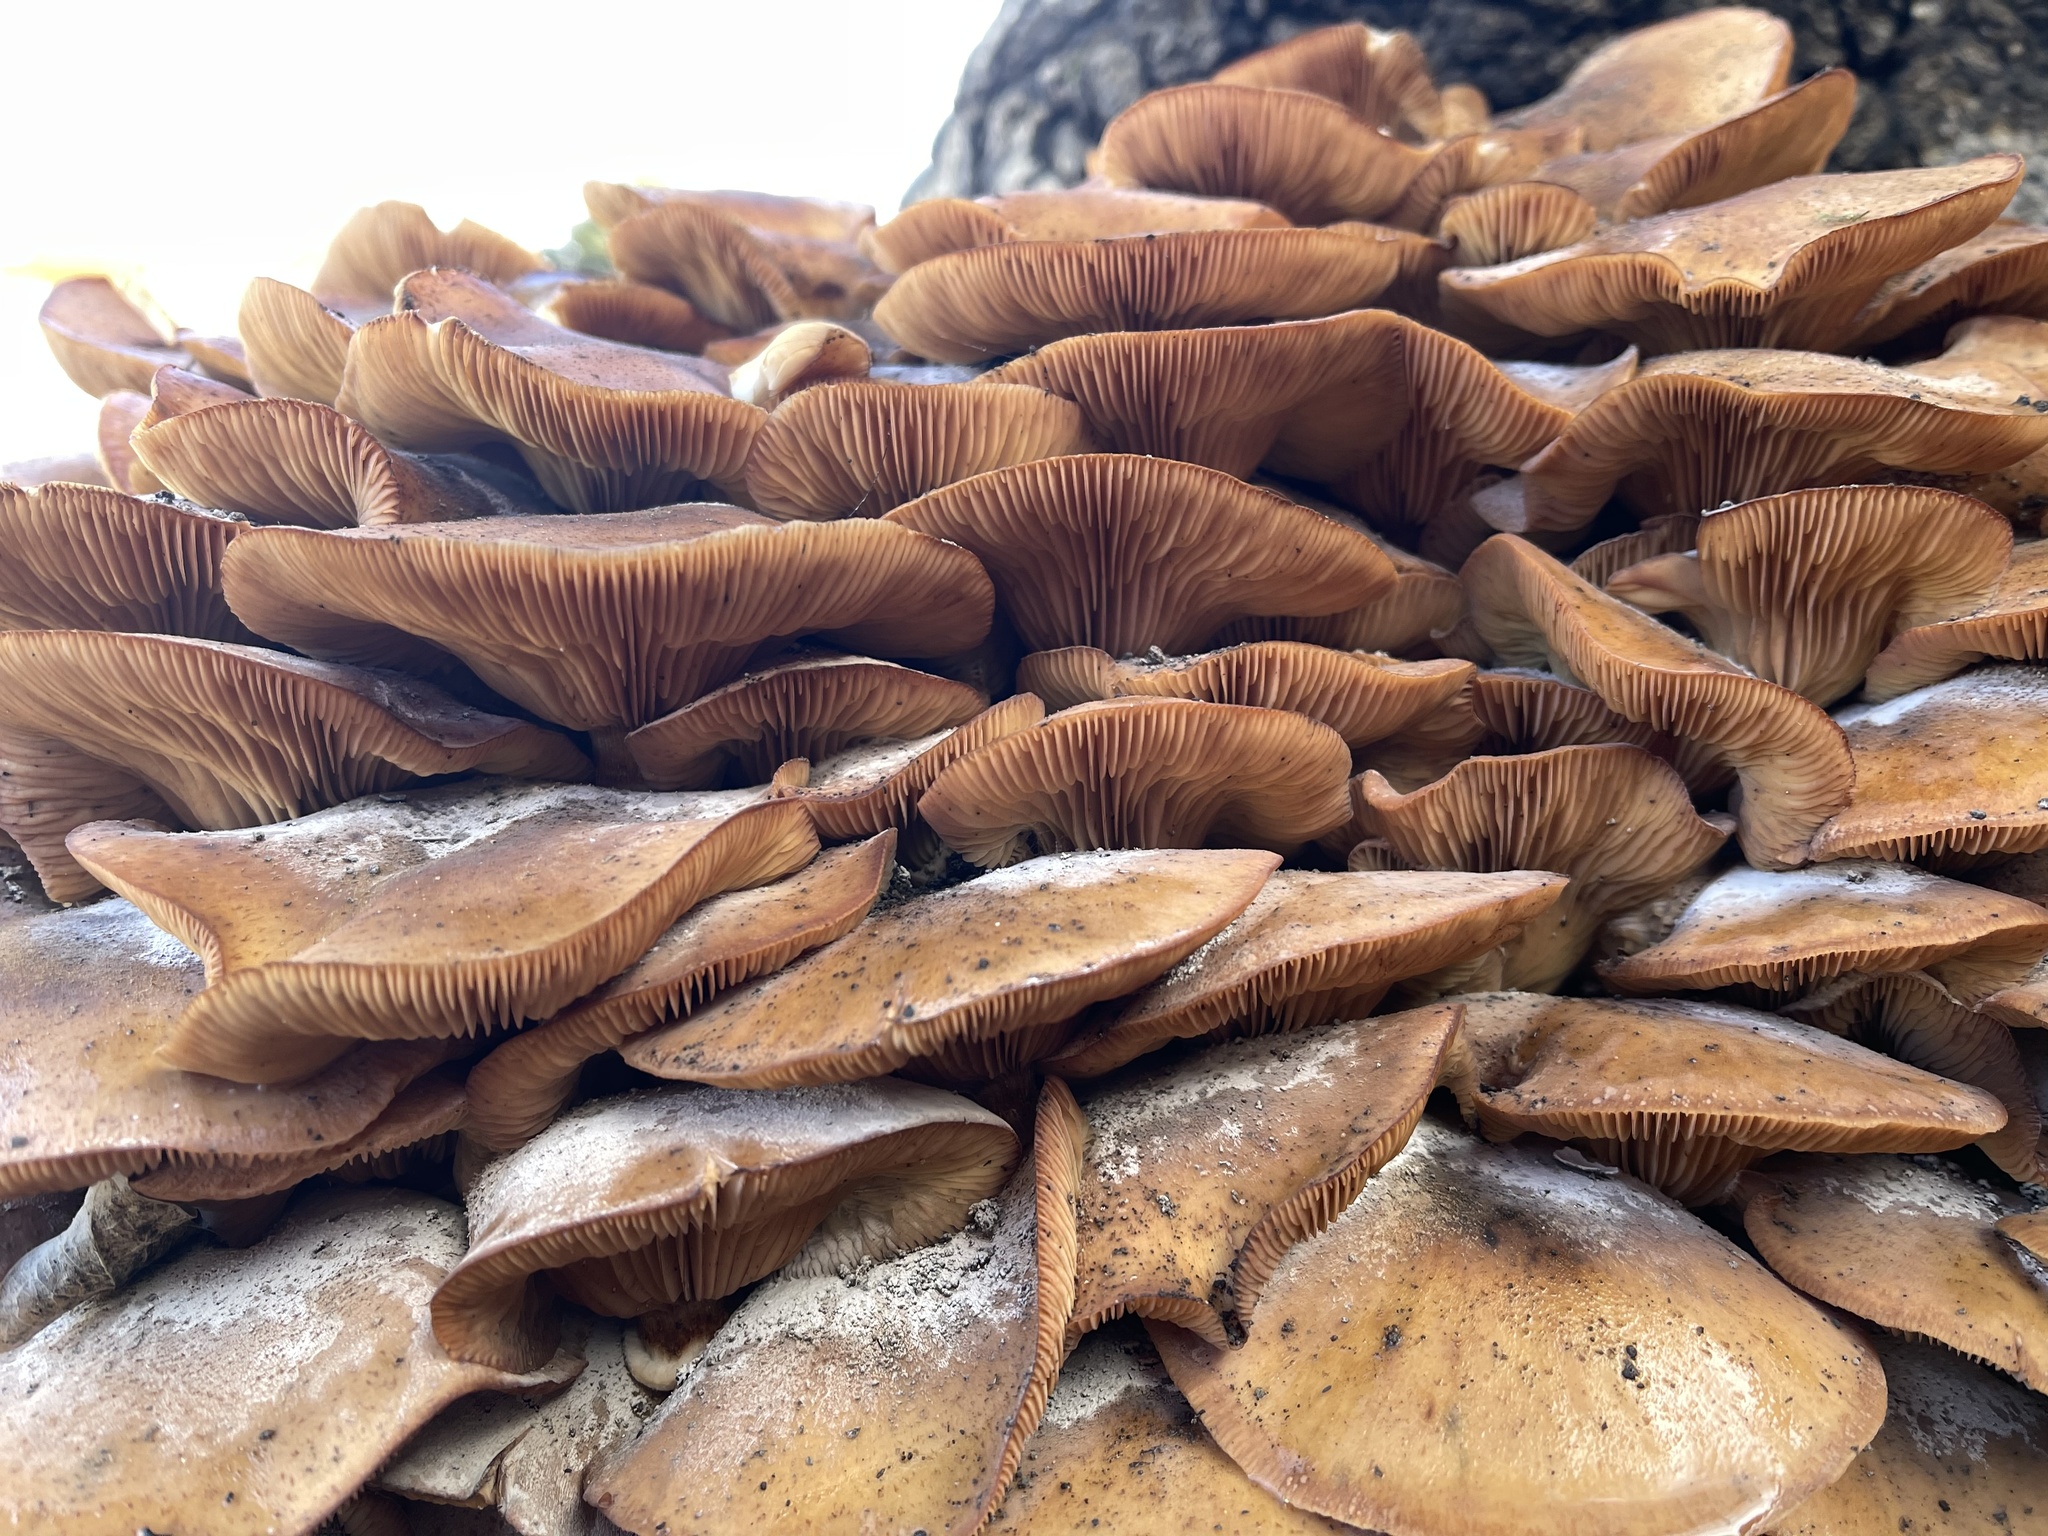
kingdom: Fungi
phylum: Basidiomycota
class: Agaricomycetes
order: Agaricales
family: Physalacriaceae
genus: Armillaria
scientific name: Armillaria mellea
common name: Honey fungus
